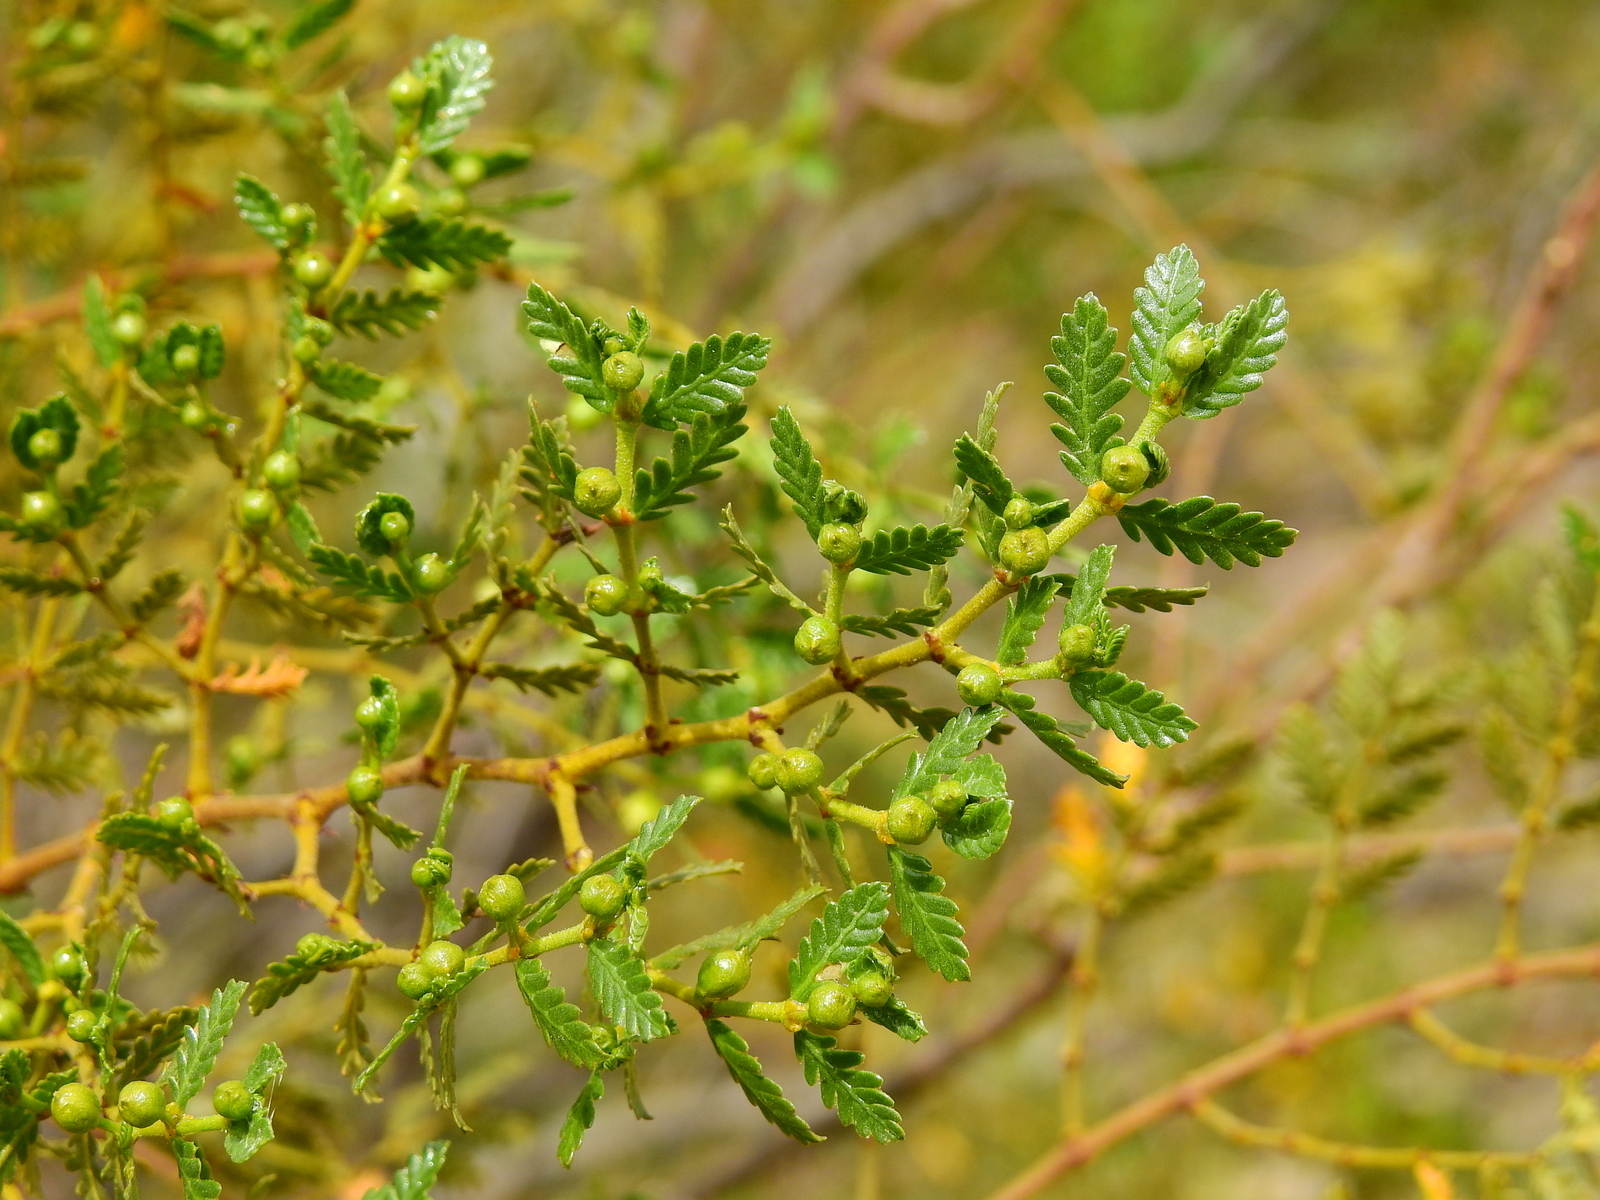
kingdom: Plantae
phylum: Tracheophyta
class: Magnoliopsida
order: Zygophyllales
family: Zygophyllaceae
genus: Larrea
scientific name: Larrea nitida
